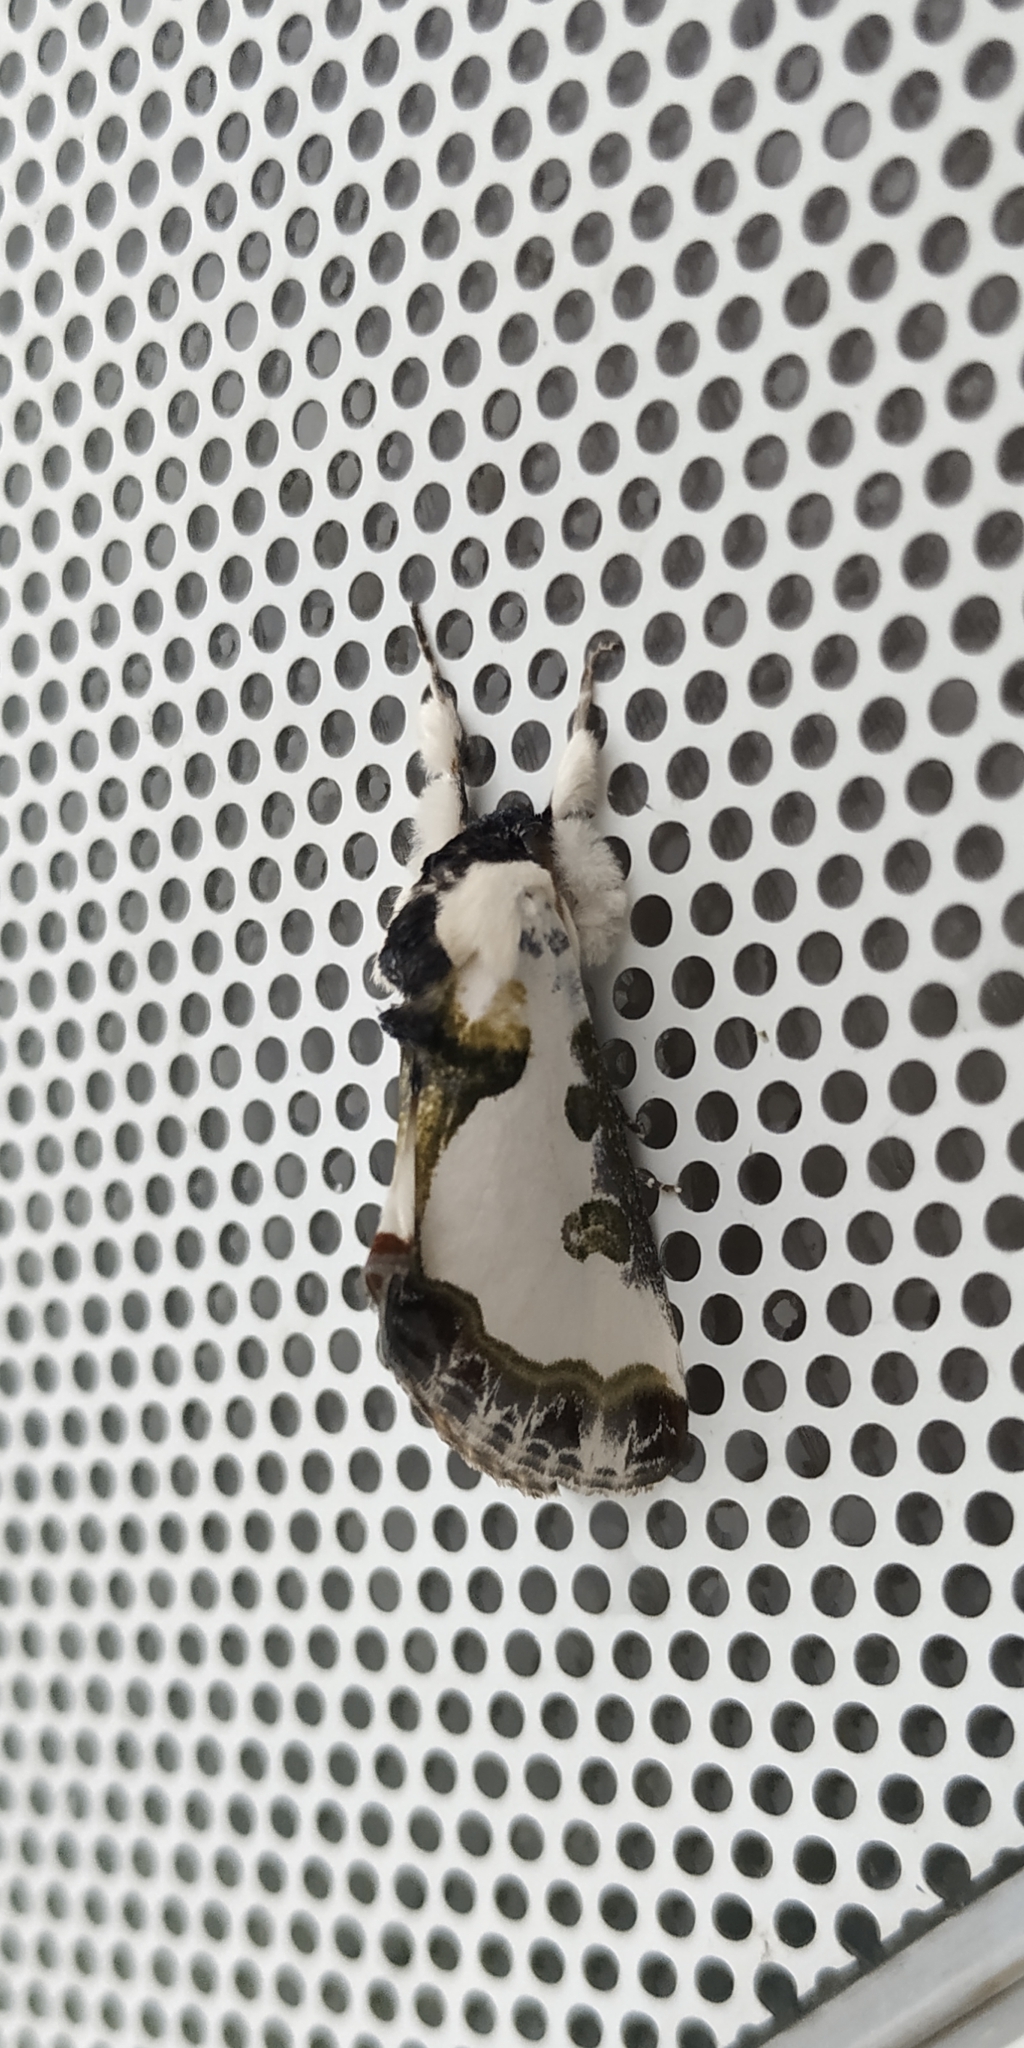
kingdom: Animalia
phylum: Arthropoda
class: Insecta
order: Lepidoptera
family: Noctuidae
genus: Xerociris
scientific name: Xerociris wilsonii
